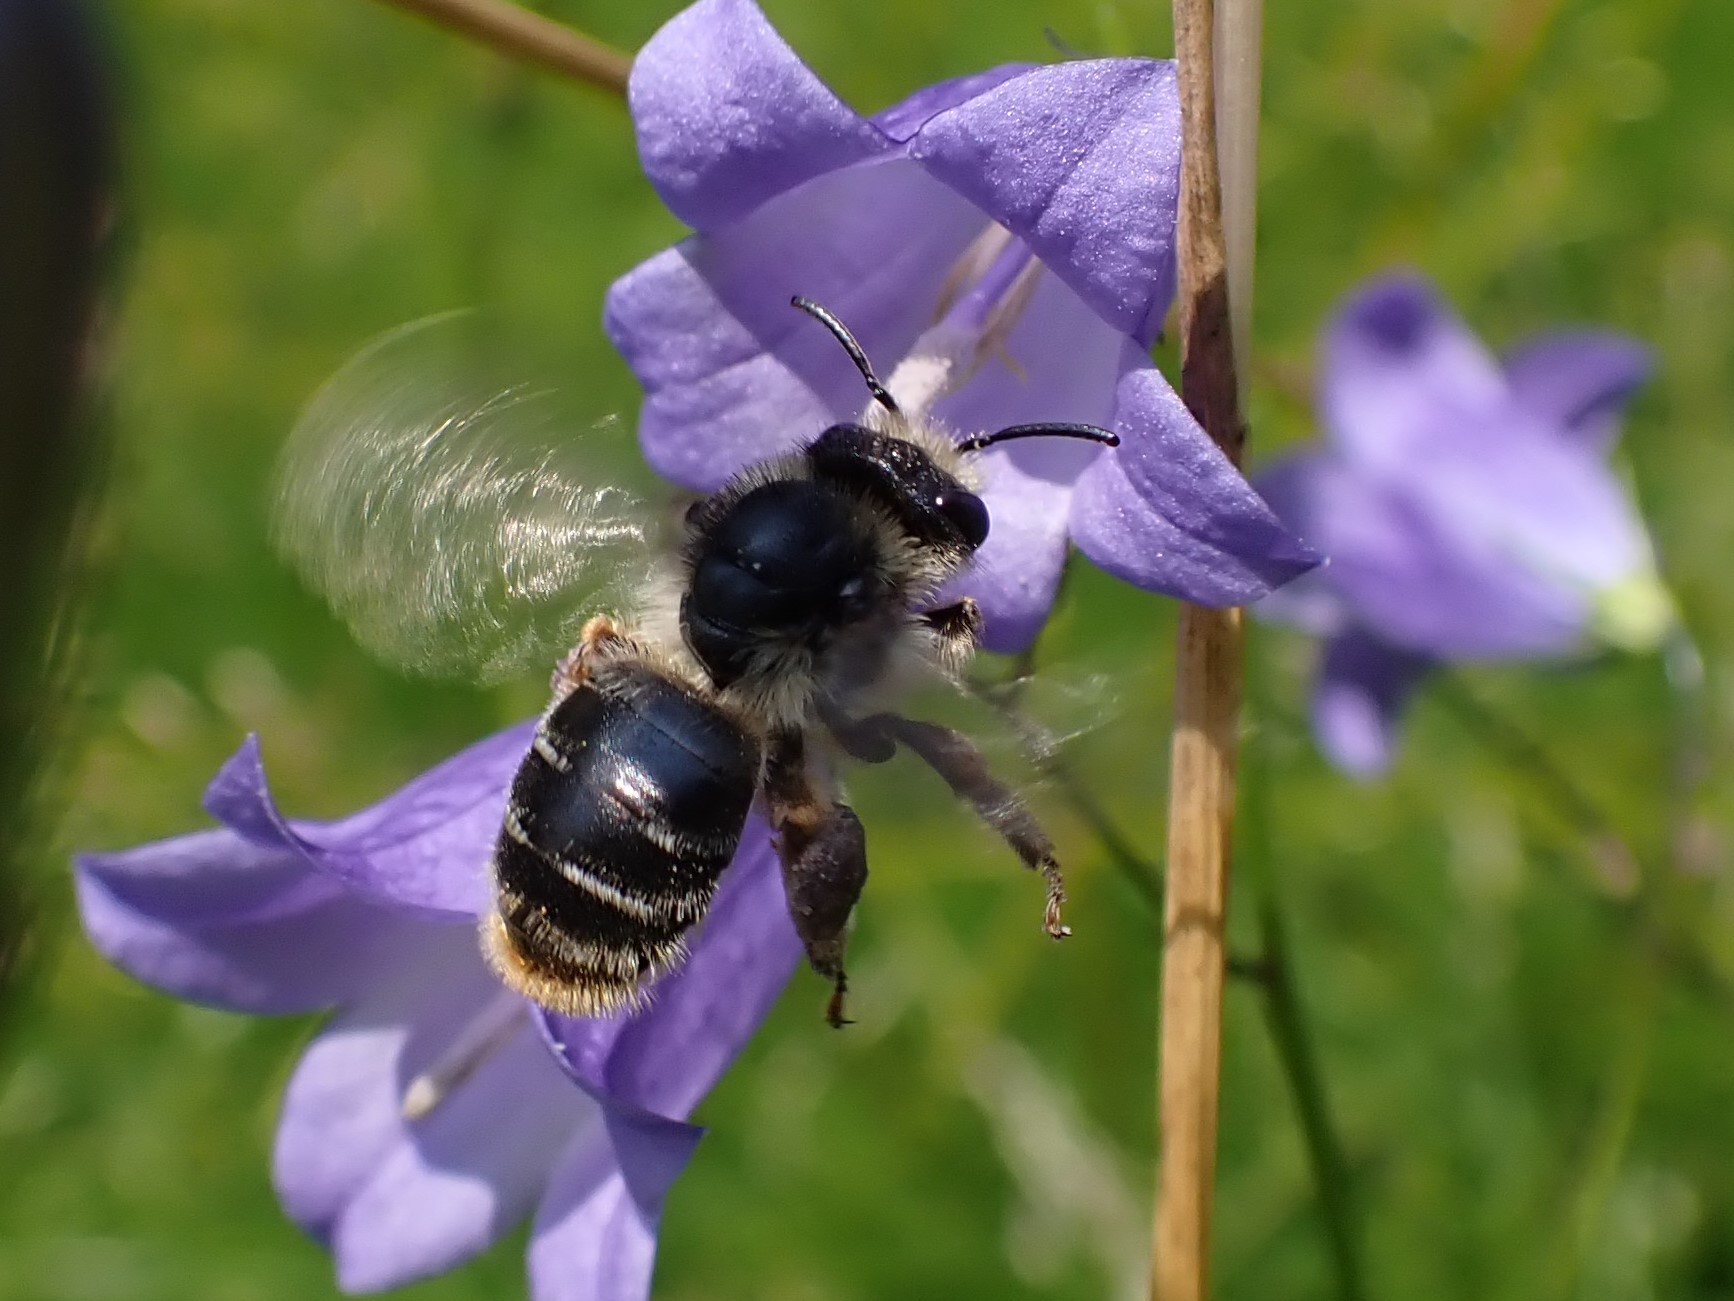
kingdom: Animalia
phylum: Arthropoda
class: Insecta
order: Hymenoptera
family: Melittidae
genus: Melitta
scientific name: Melitta haemorrhoidalis
